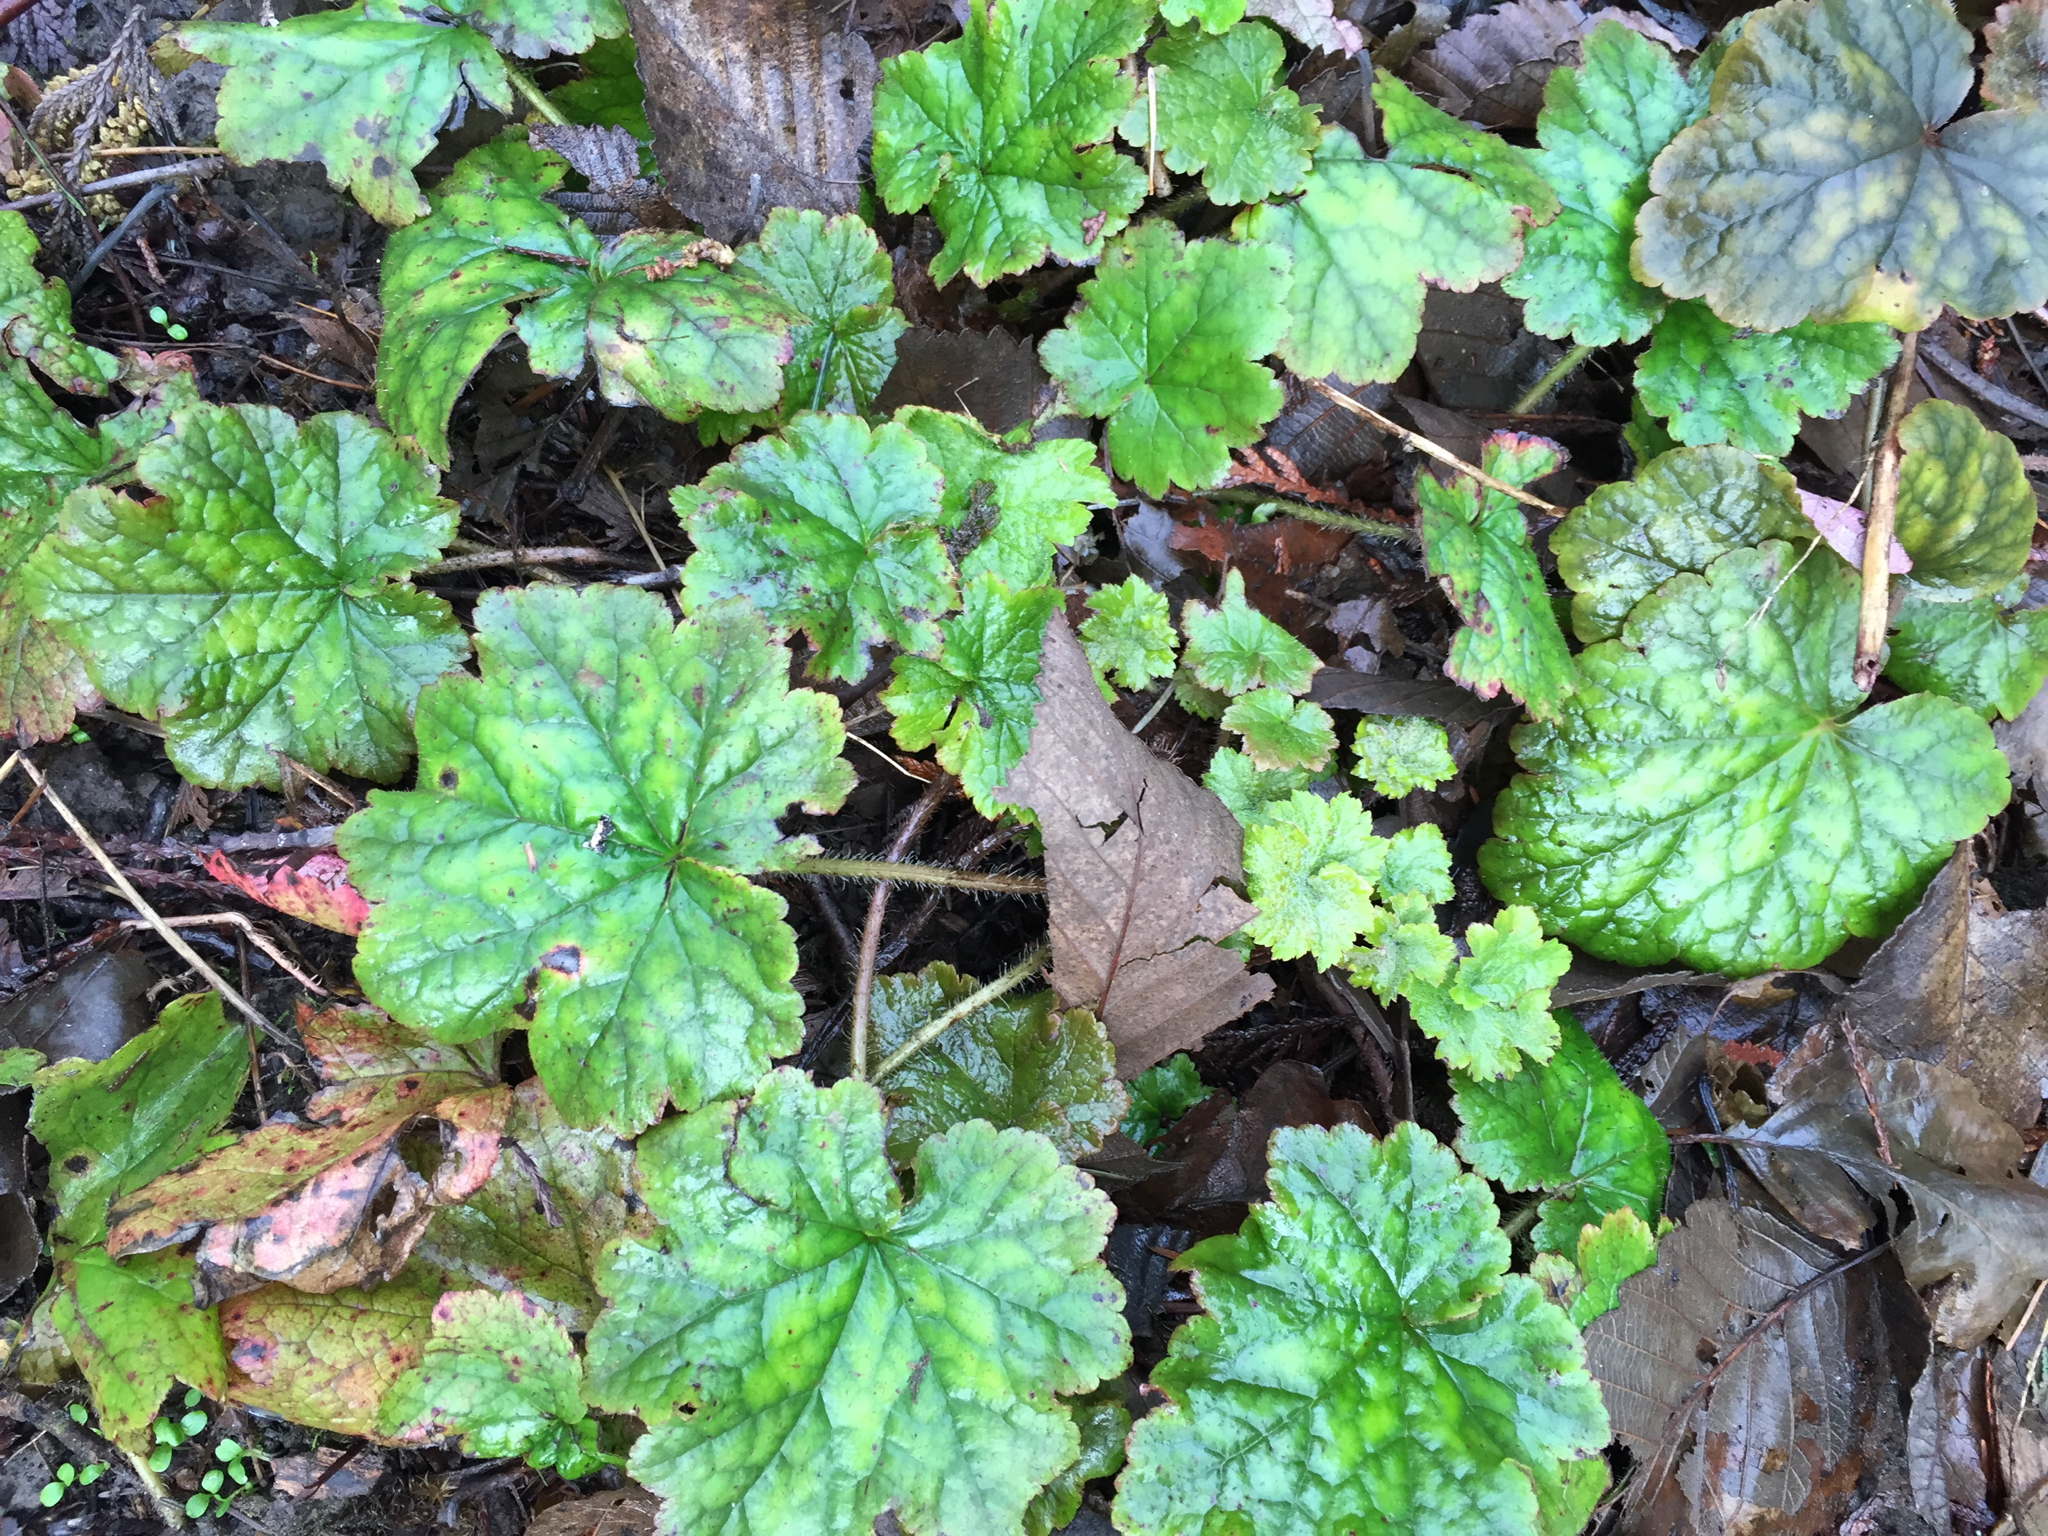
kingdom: Plantae
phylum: Tracheophyta
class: Magnoliopsida
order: Saxifragales
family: Saxifragaceae
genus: Tellima
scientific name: Tellima grandiflora
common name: Fringecups
